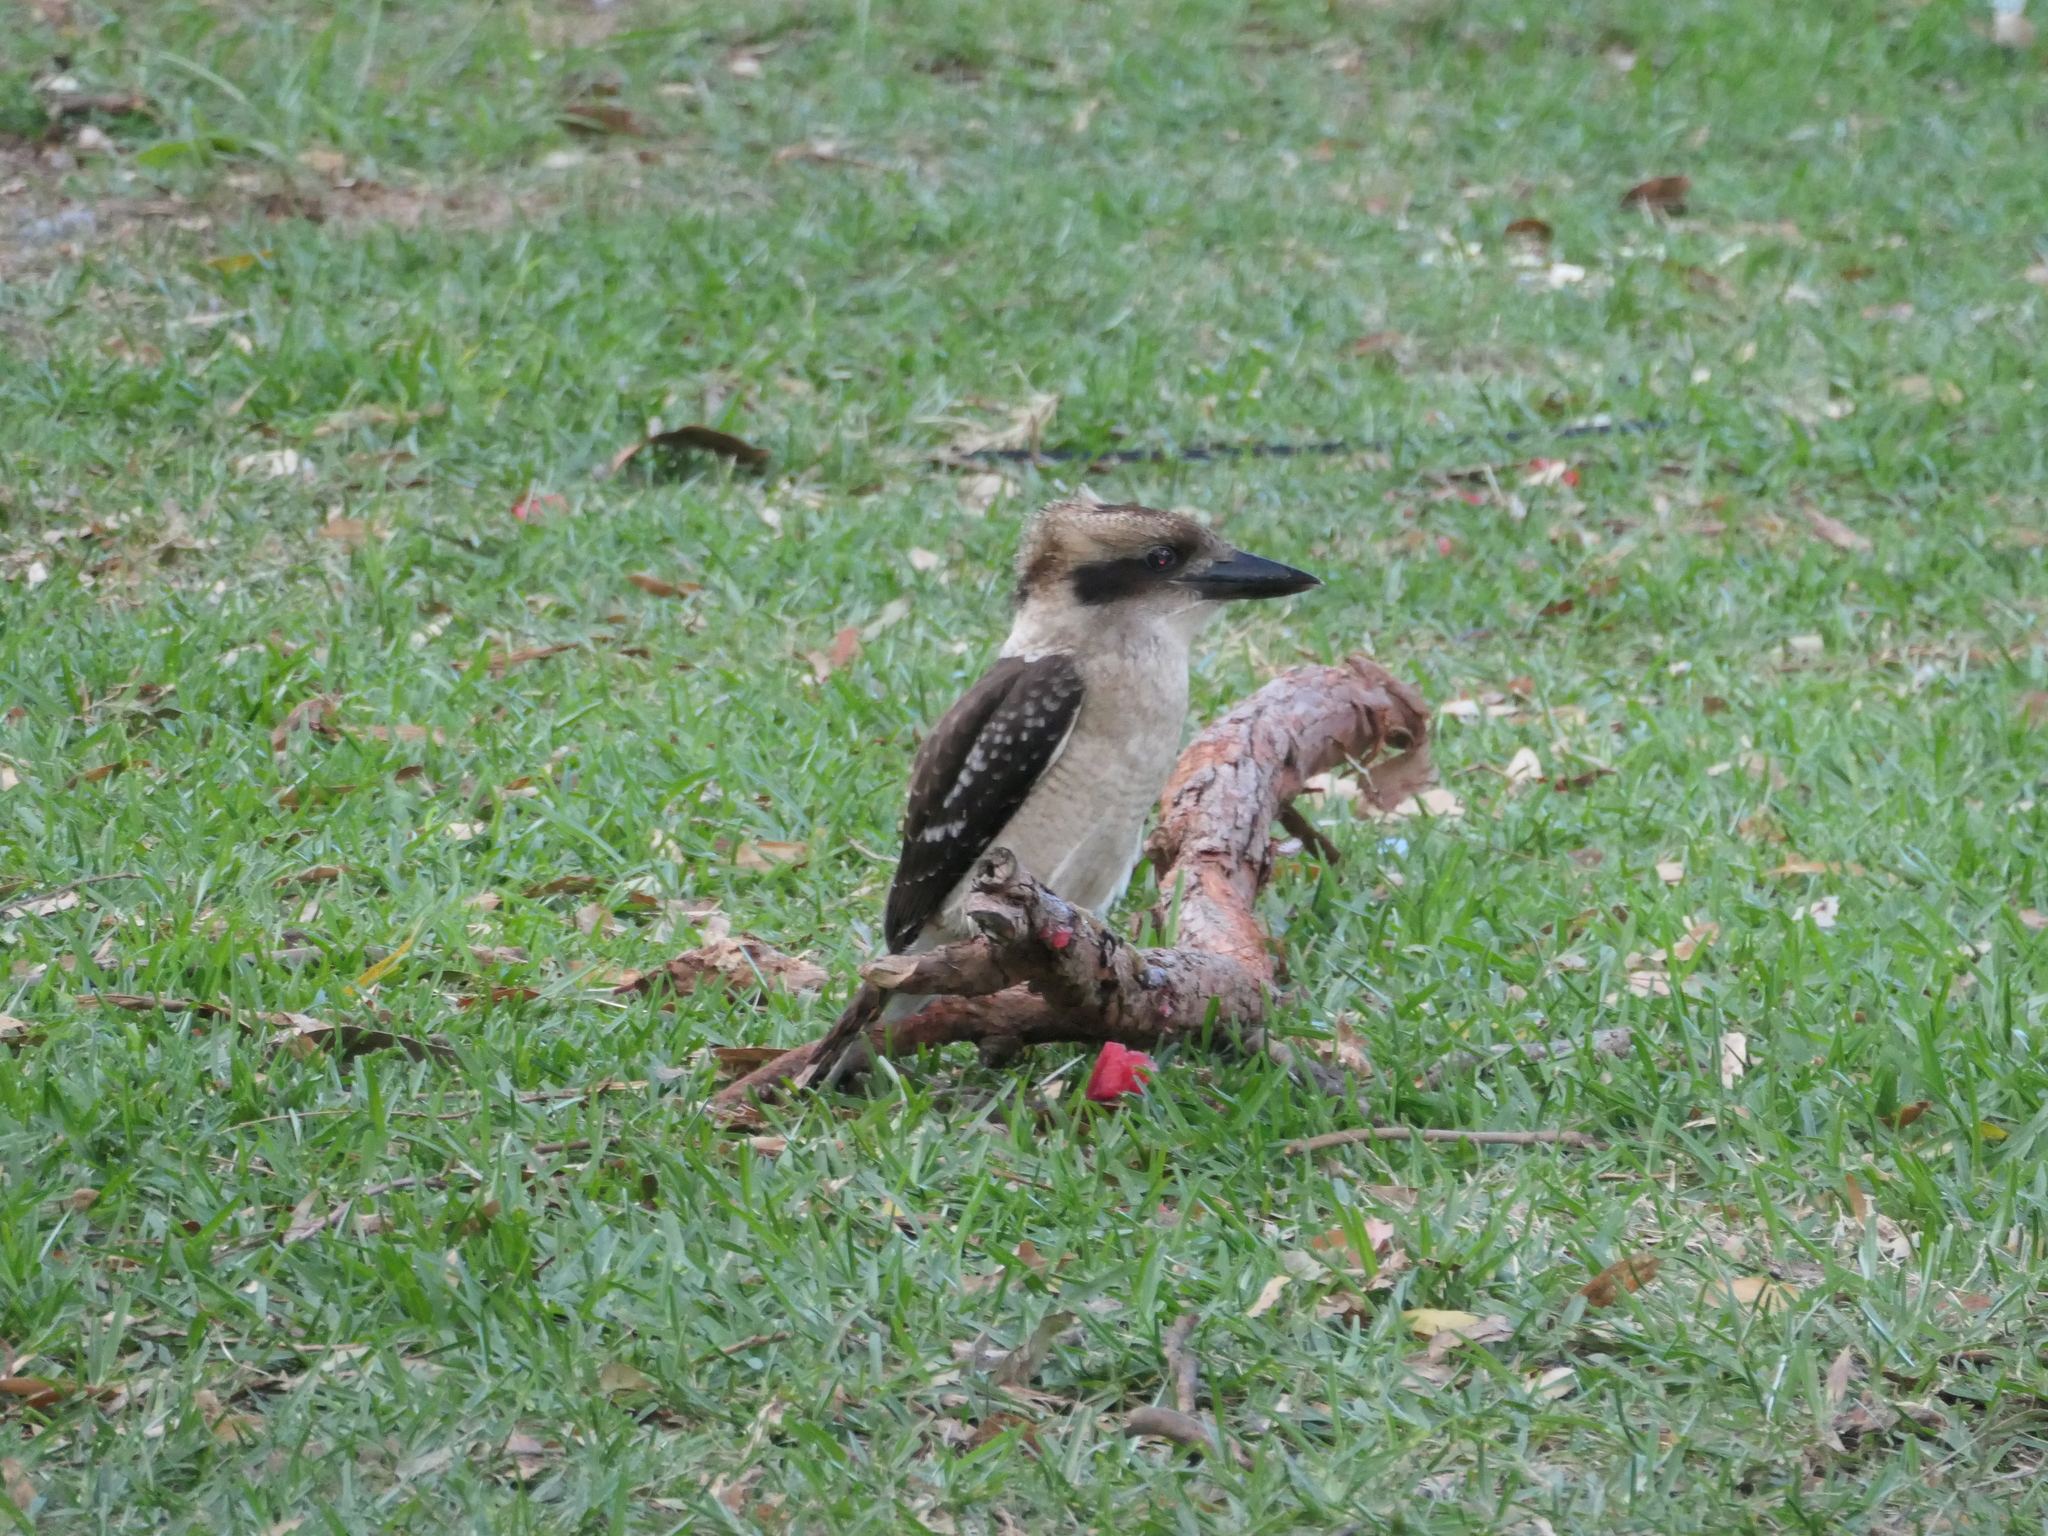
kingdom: Animalia
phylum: Chordata
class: Aves
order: Coraciiformes
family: Alcedinidae
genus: Dacelo
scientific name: Dacelo novaeguineae
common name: Laughing kookaburra
